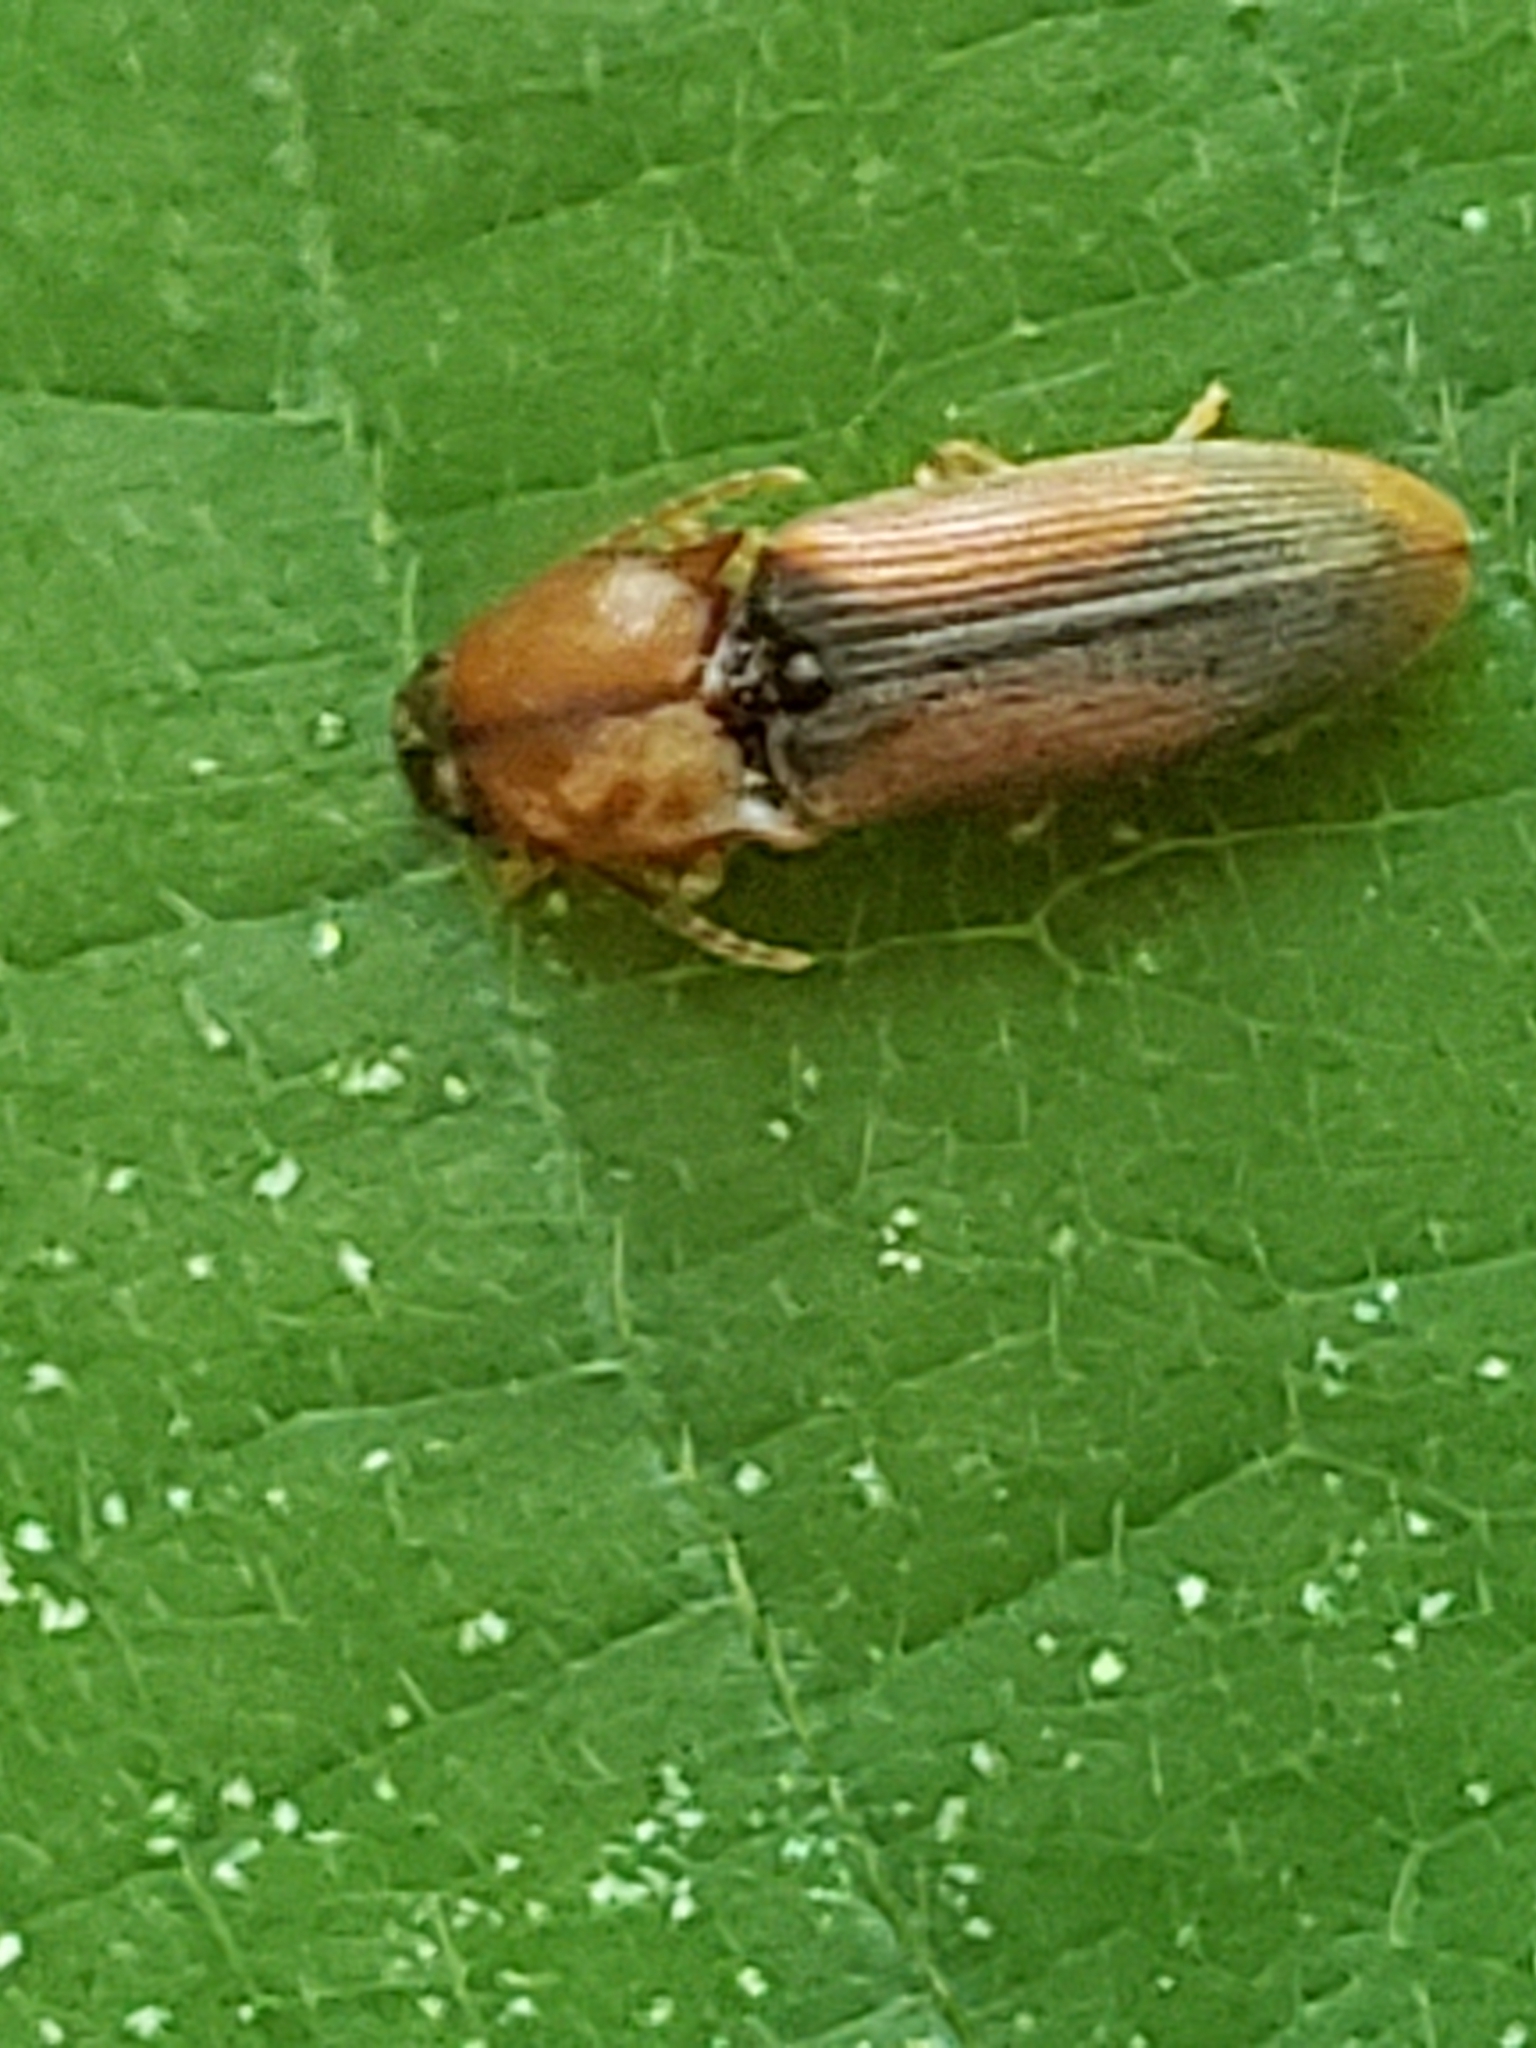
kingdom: Animalia
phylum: Arthropoda
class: Insecta
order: Coleoptera
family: Elateridae
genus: Monocrepidius
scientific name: Monocrepidius
